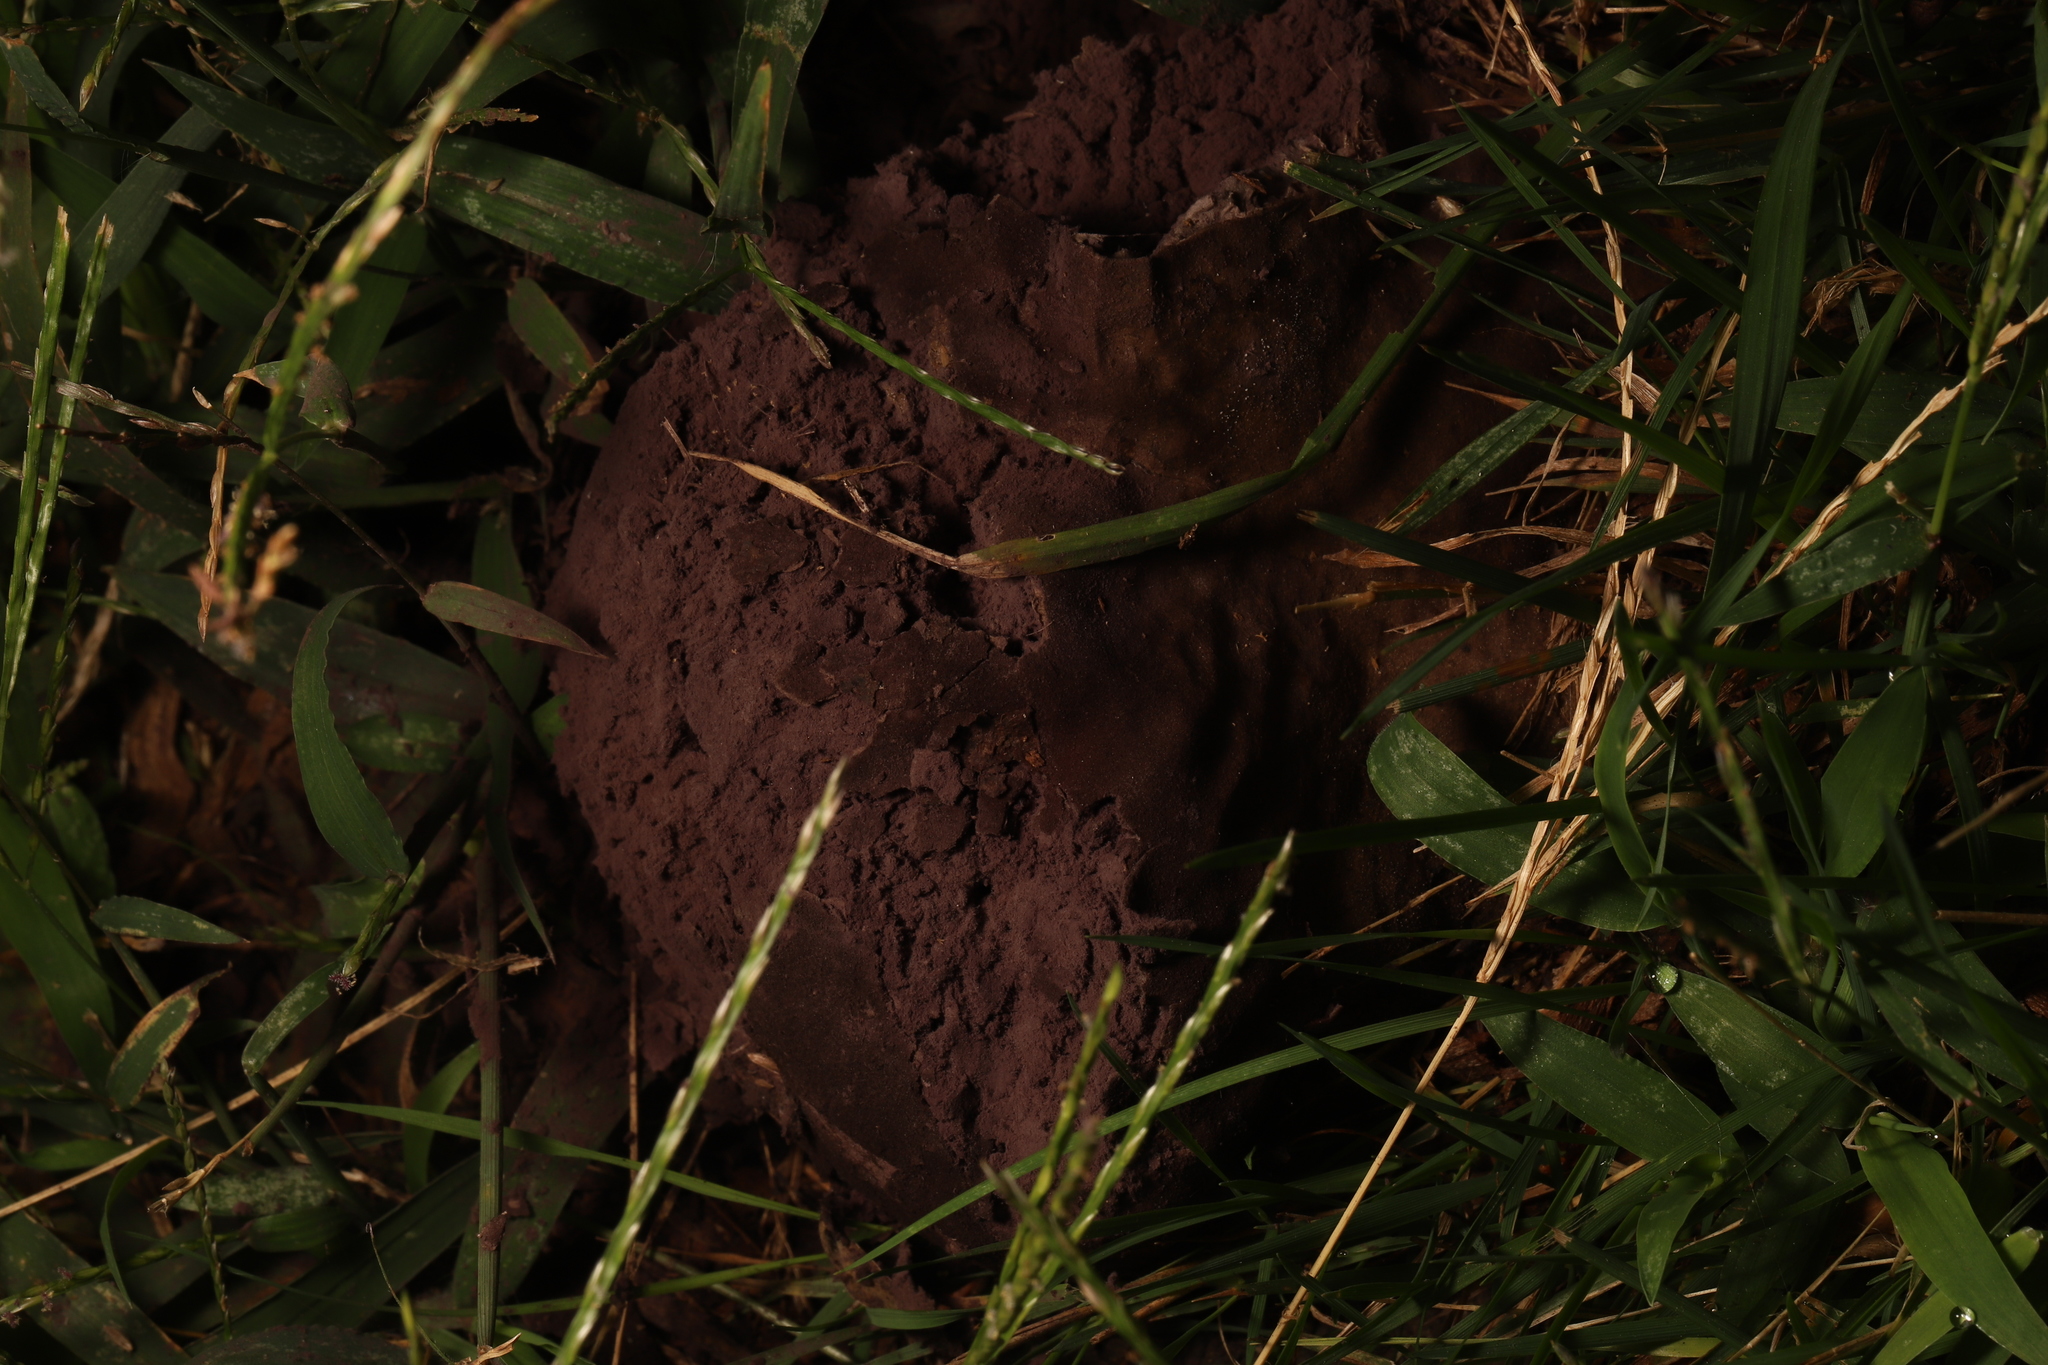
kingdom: Fungi
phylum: Basidiomycota
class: Agaricomycetes
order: Agaricales
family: Lycoperdaceae
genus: Calvatia
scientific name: Calvatia cyathiformis
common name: Purple-spored puffball
